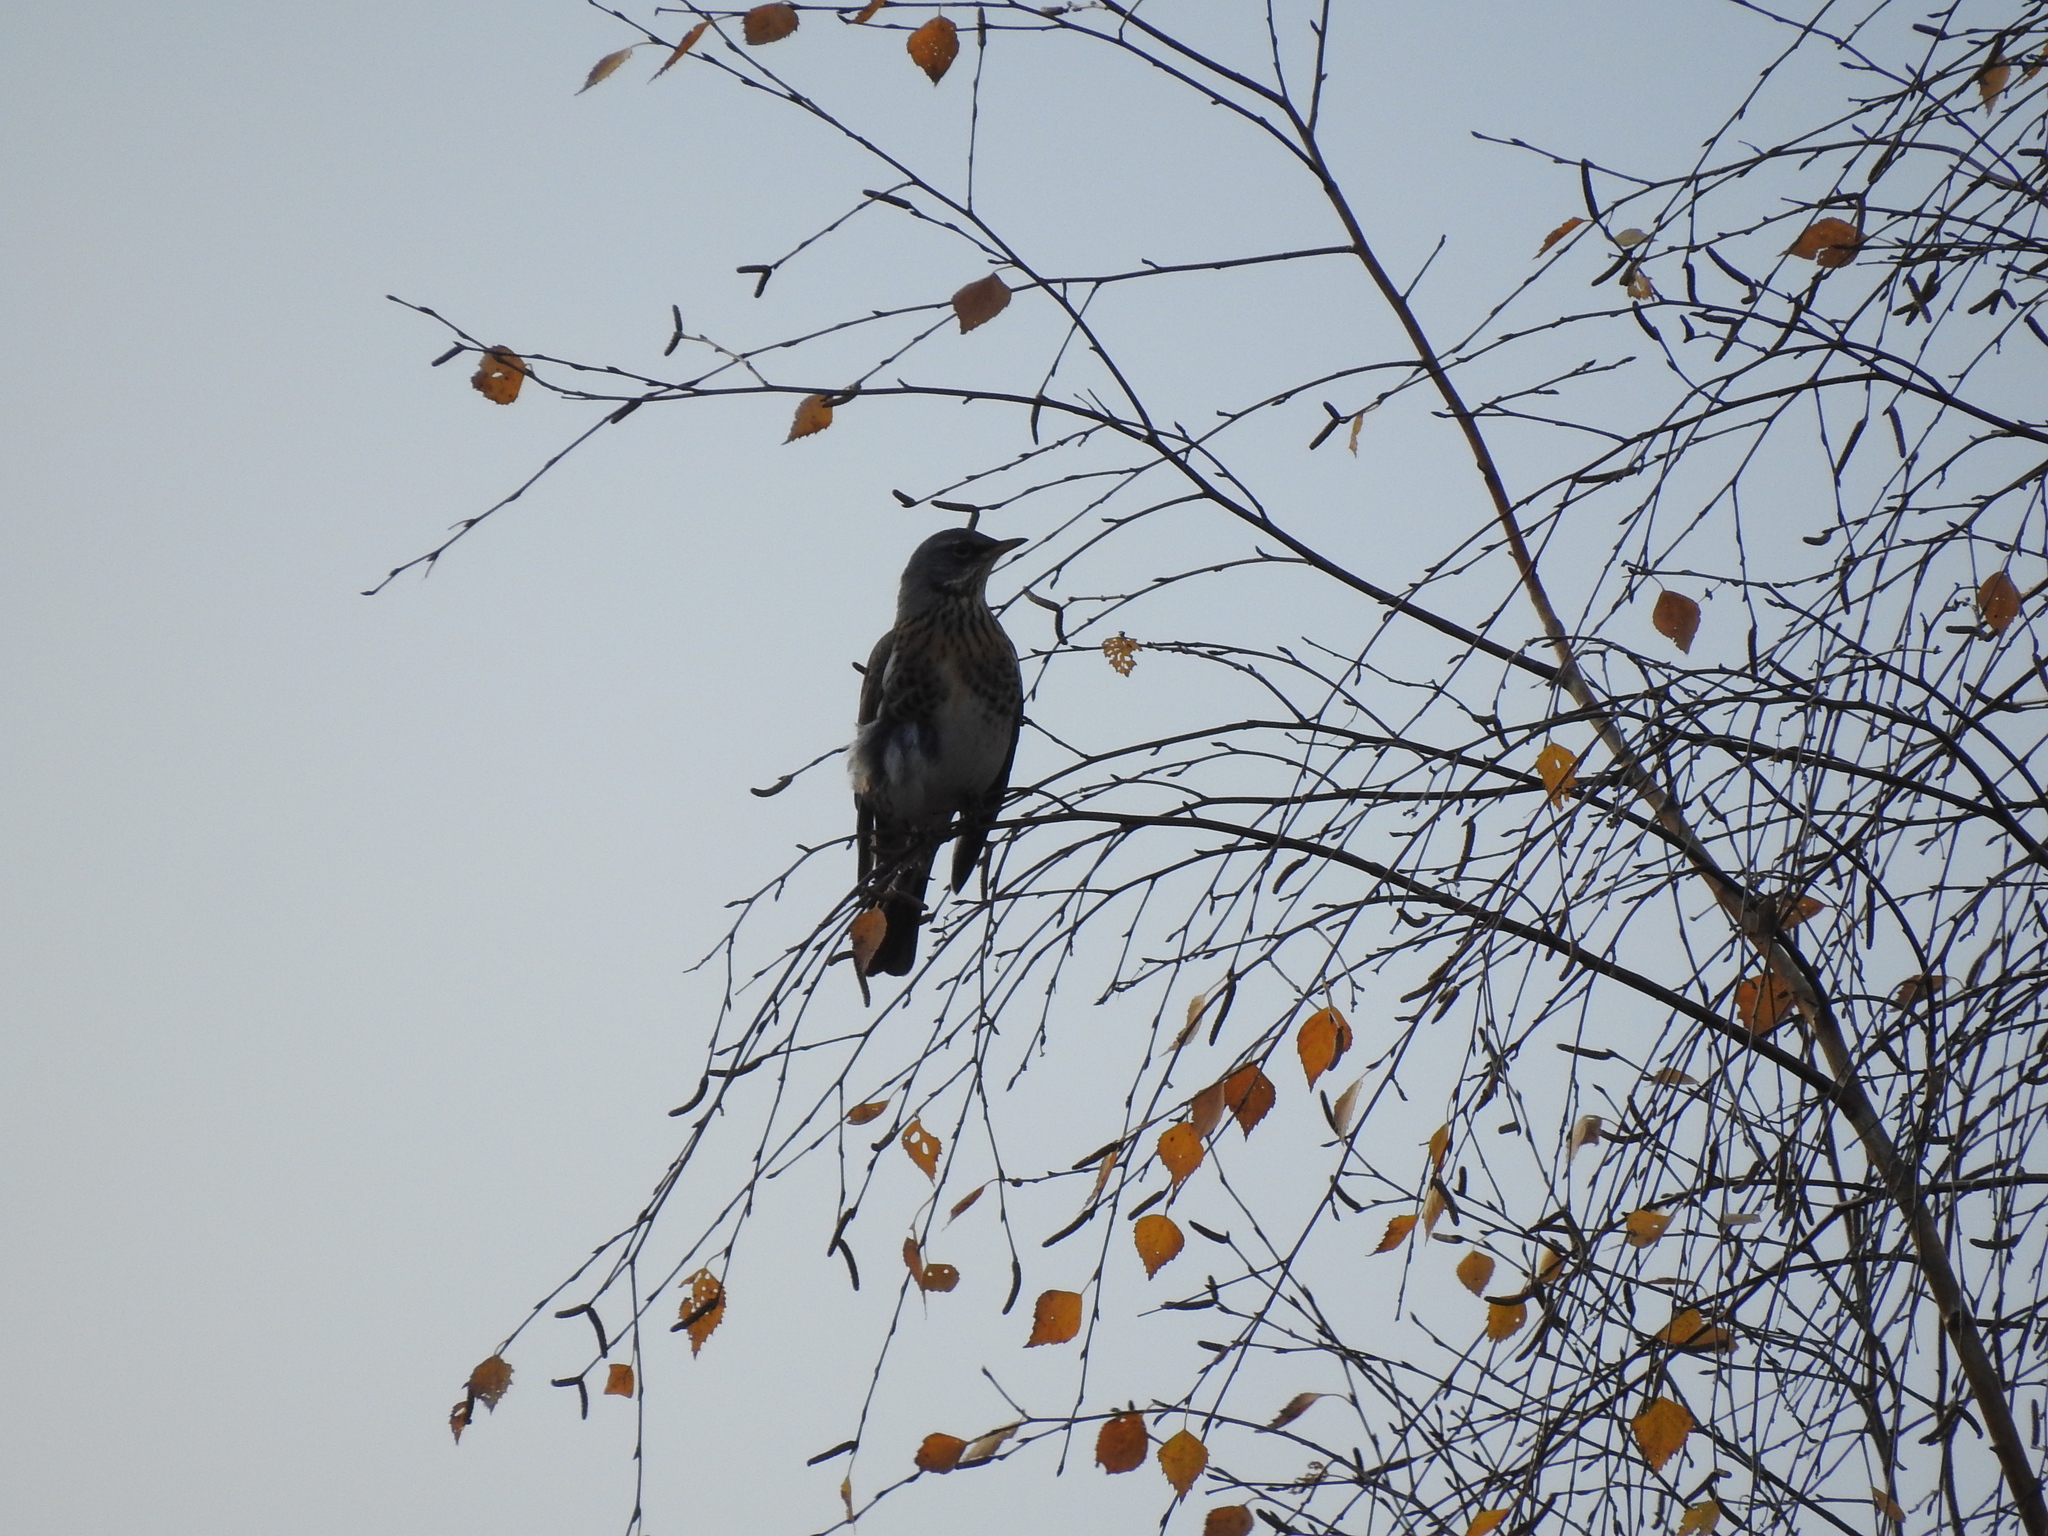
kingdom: Animalia
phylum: Chordata
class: Aves
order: Passeriformes
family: Turdidae
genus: Turdus
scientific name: Turdus pilaris
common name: Fieldfare
